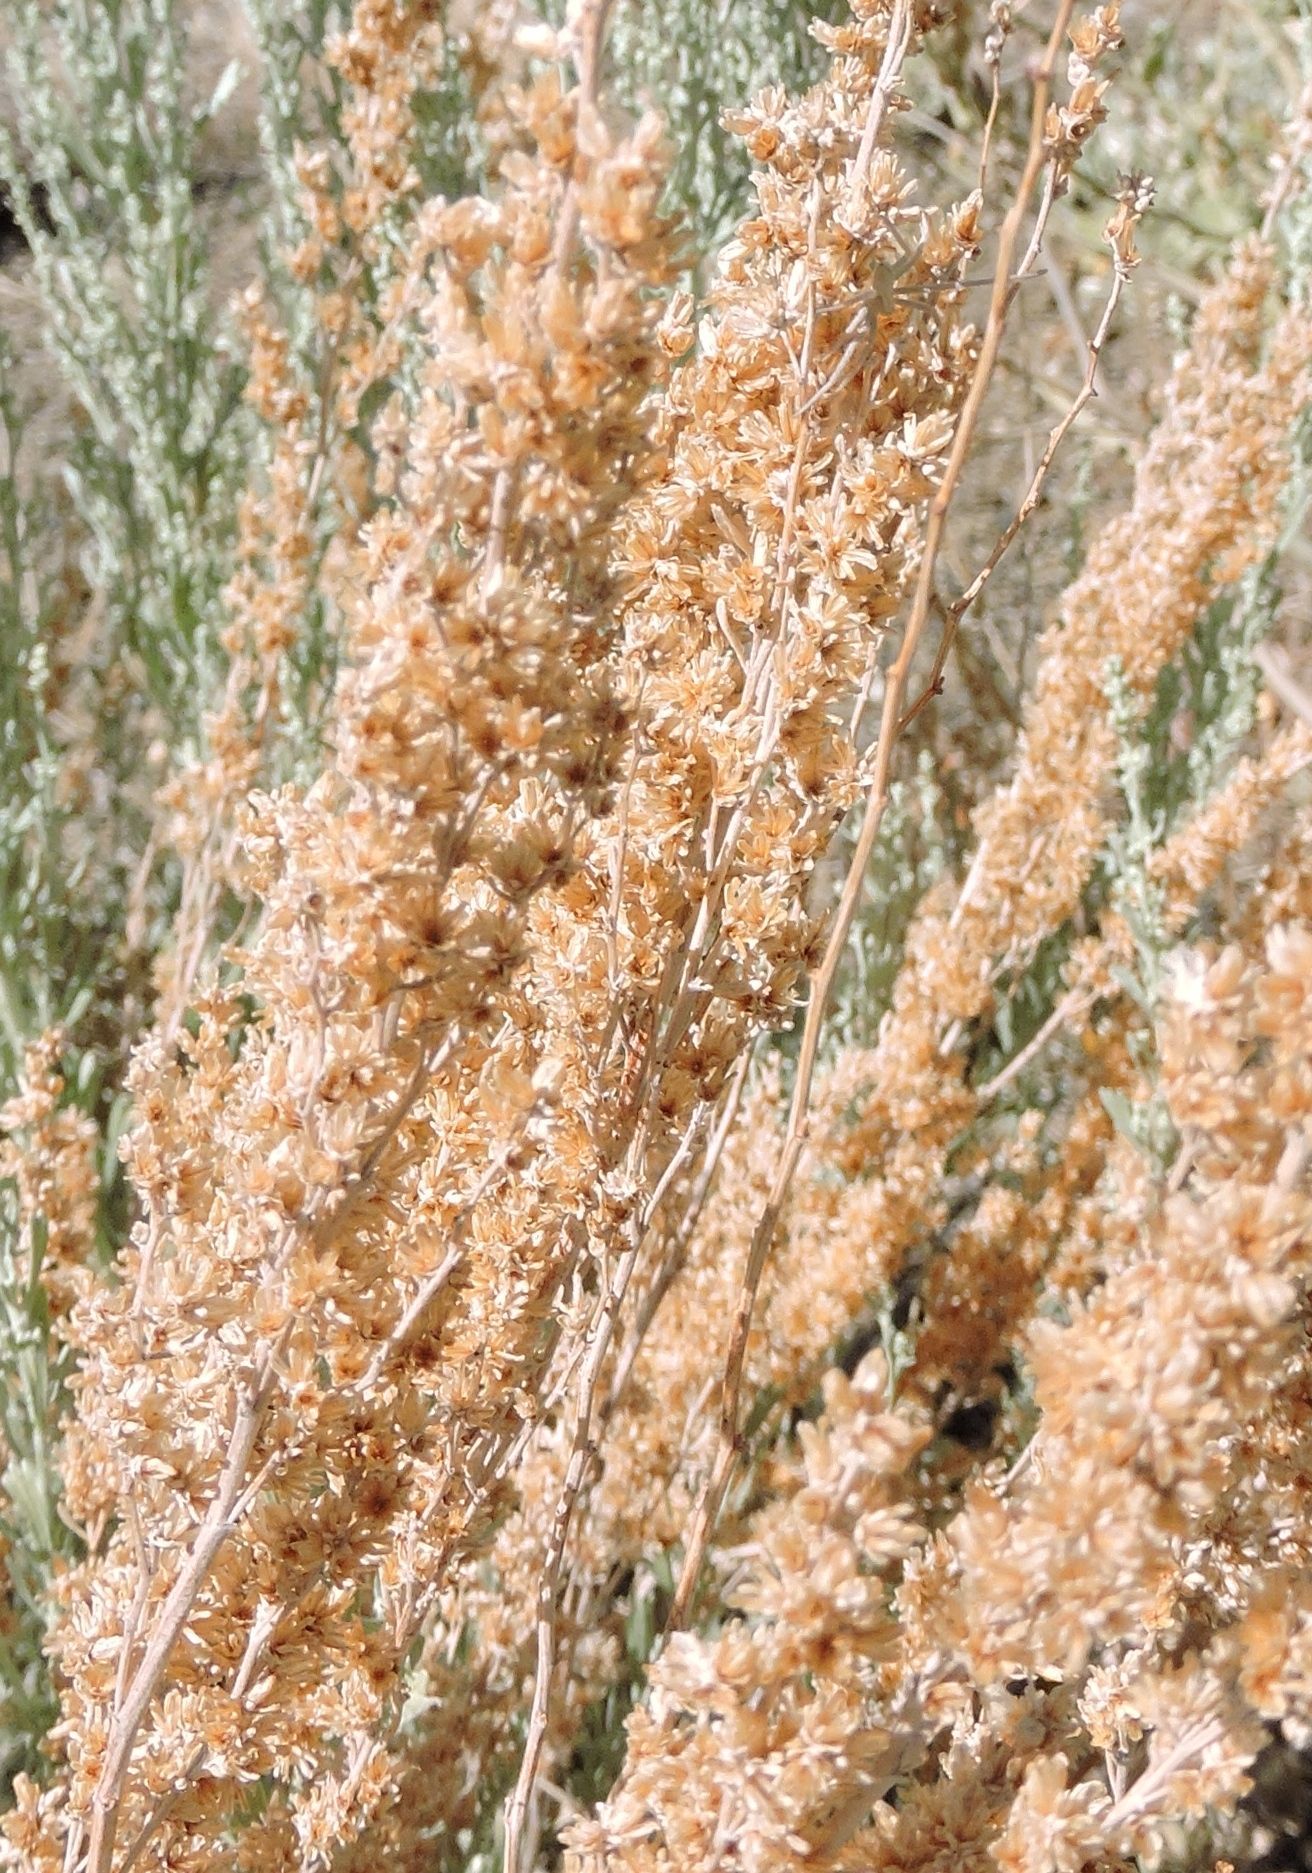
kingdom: Plantae
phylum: Tracheophyta
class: Magnoliopsida
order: Asterales
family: Asteraceae
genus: Artemisia
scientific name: Artemisia tridentata
